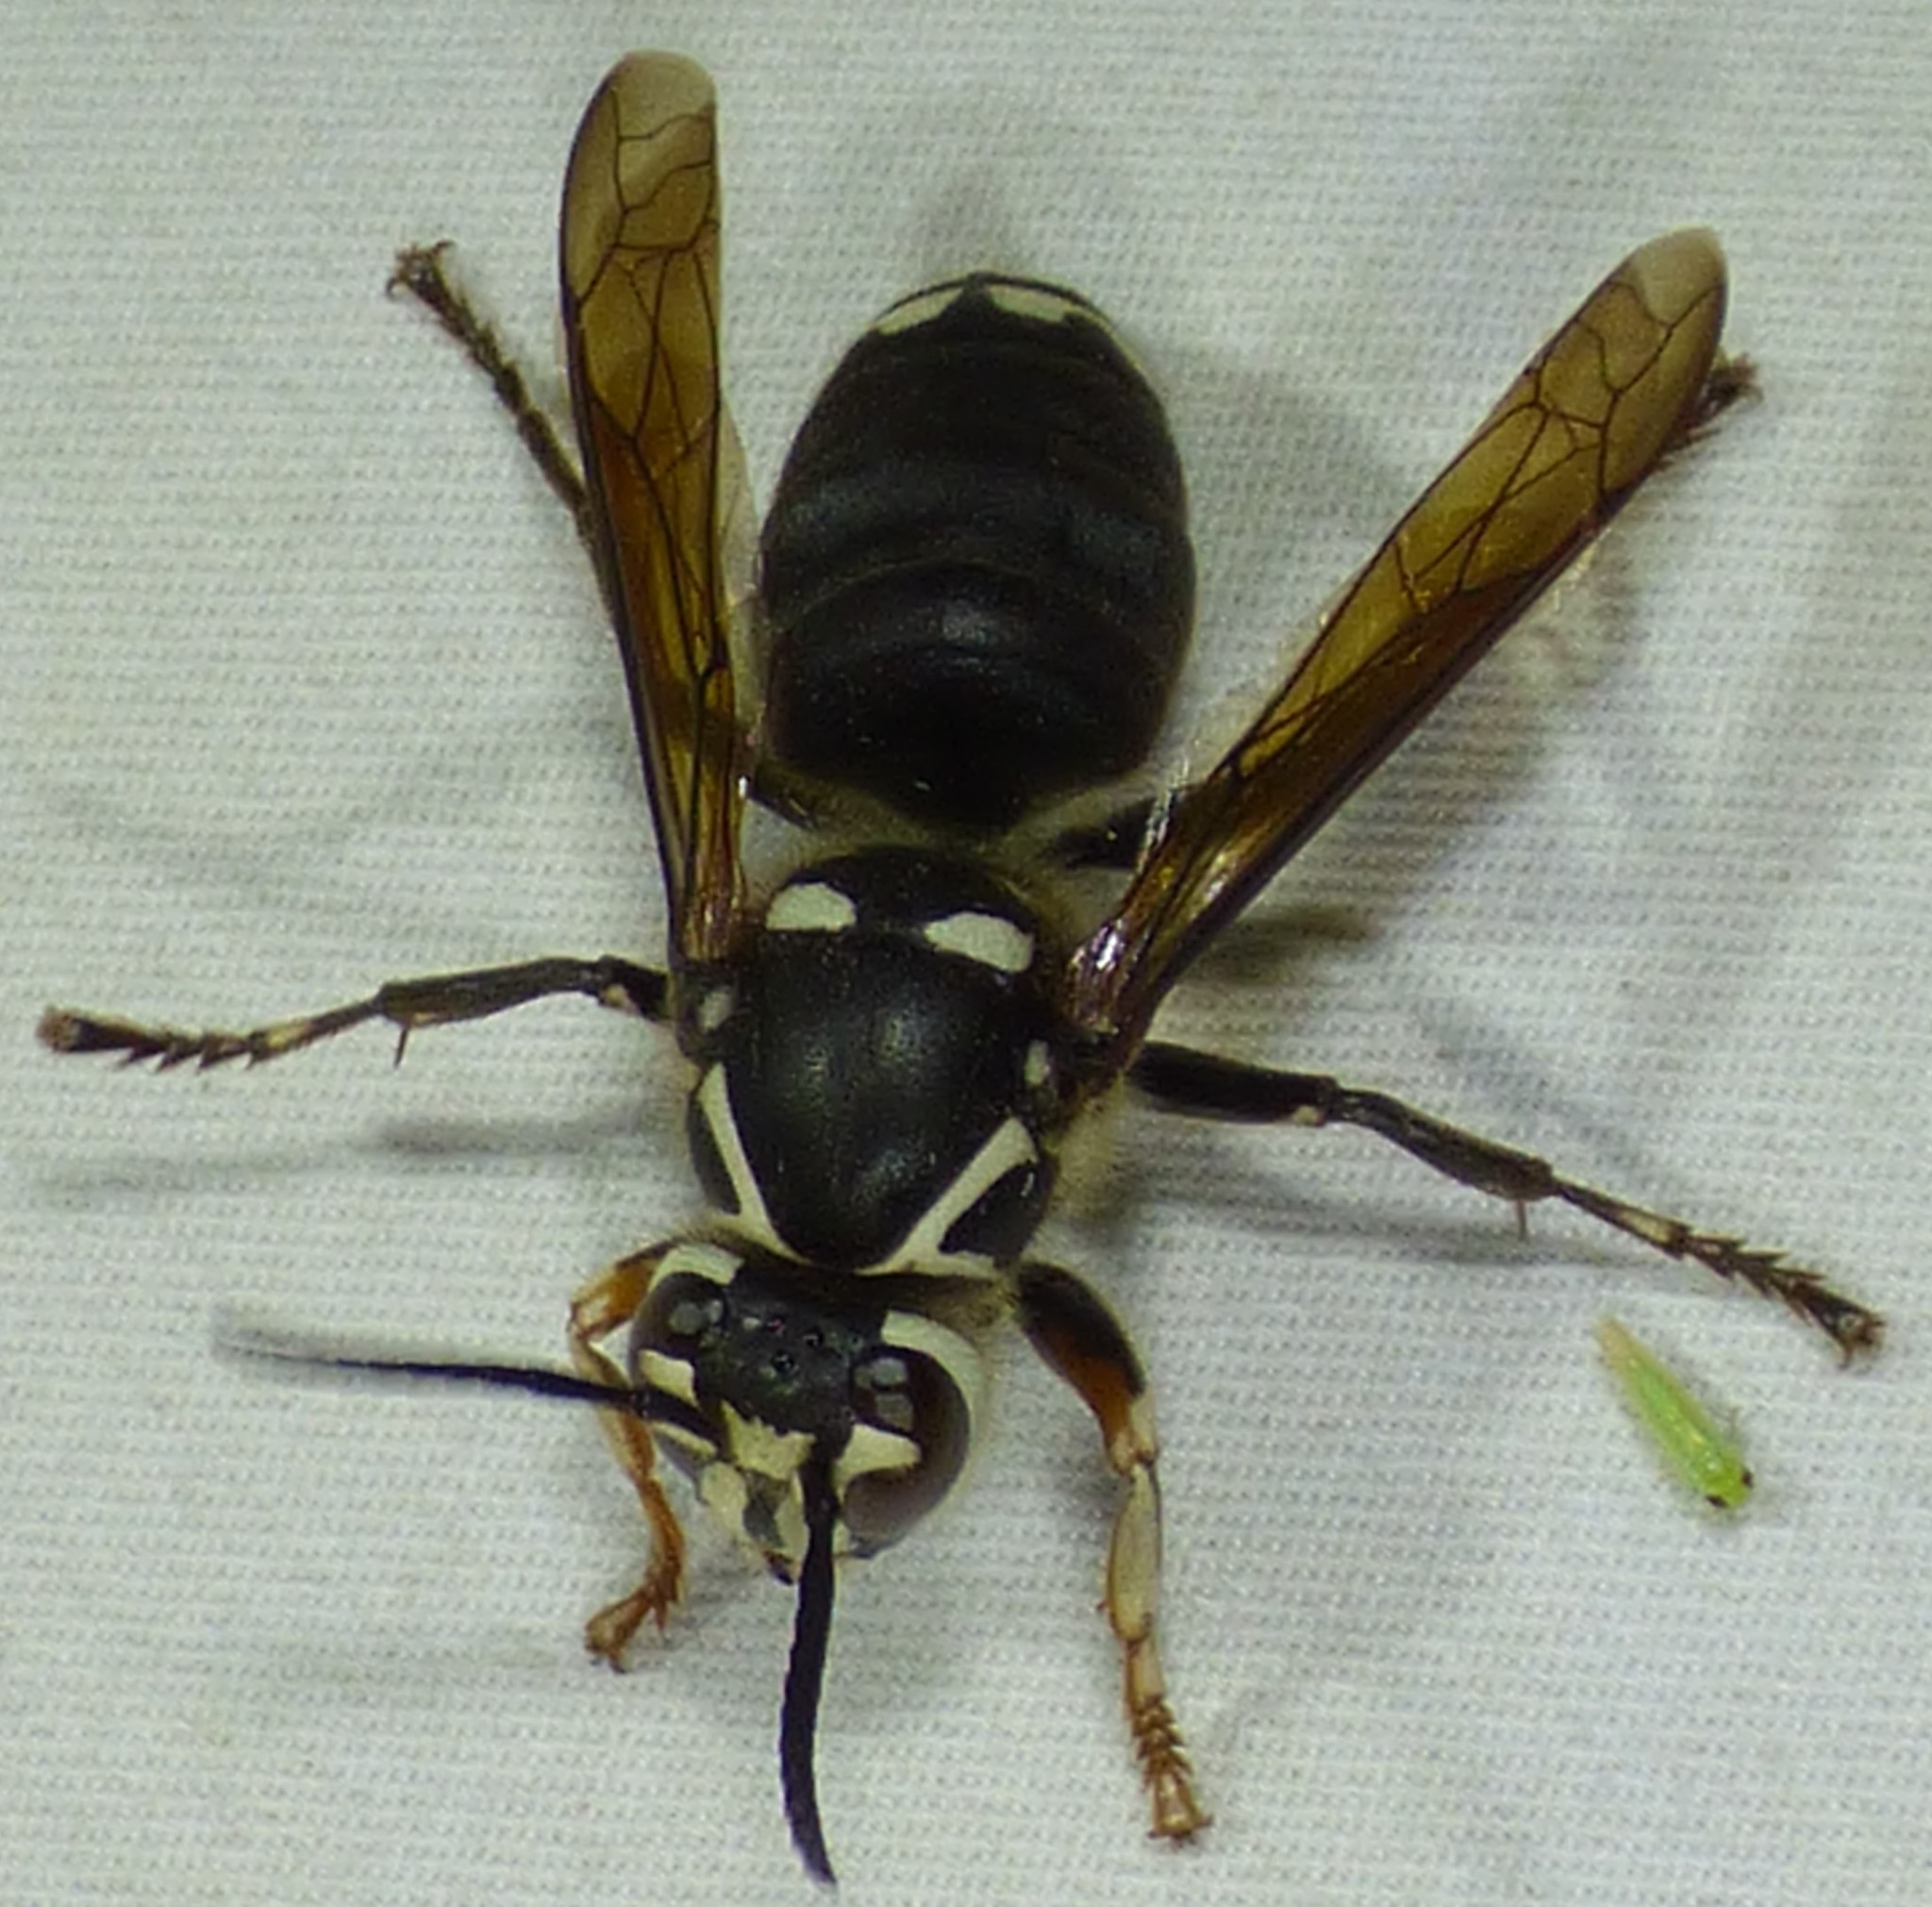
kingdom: Animalia
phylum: Arthropoda
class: Insecta
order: Hymenoptera
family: Vespidae
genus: Dolichovespula
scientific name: Dolichovespula maculata
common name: Bald-faced hornet
